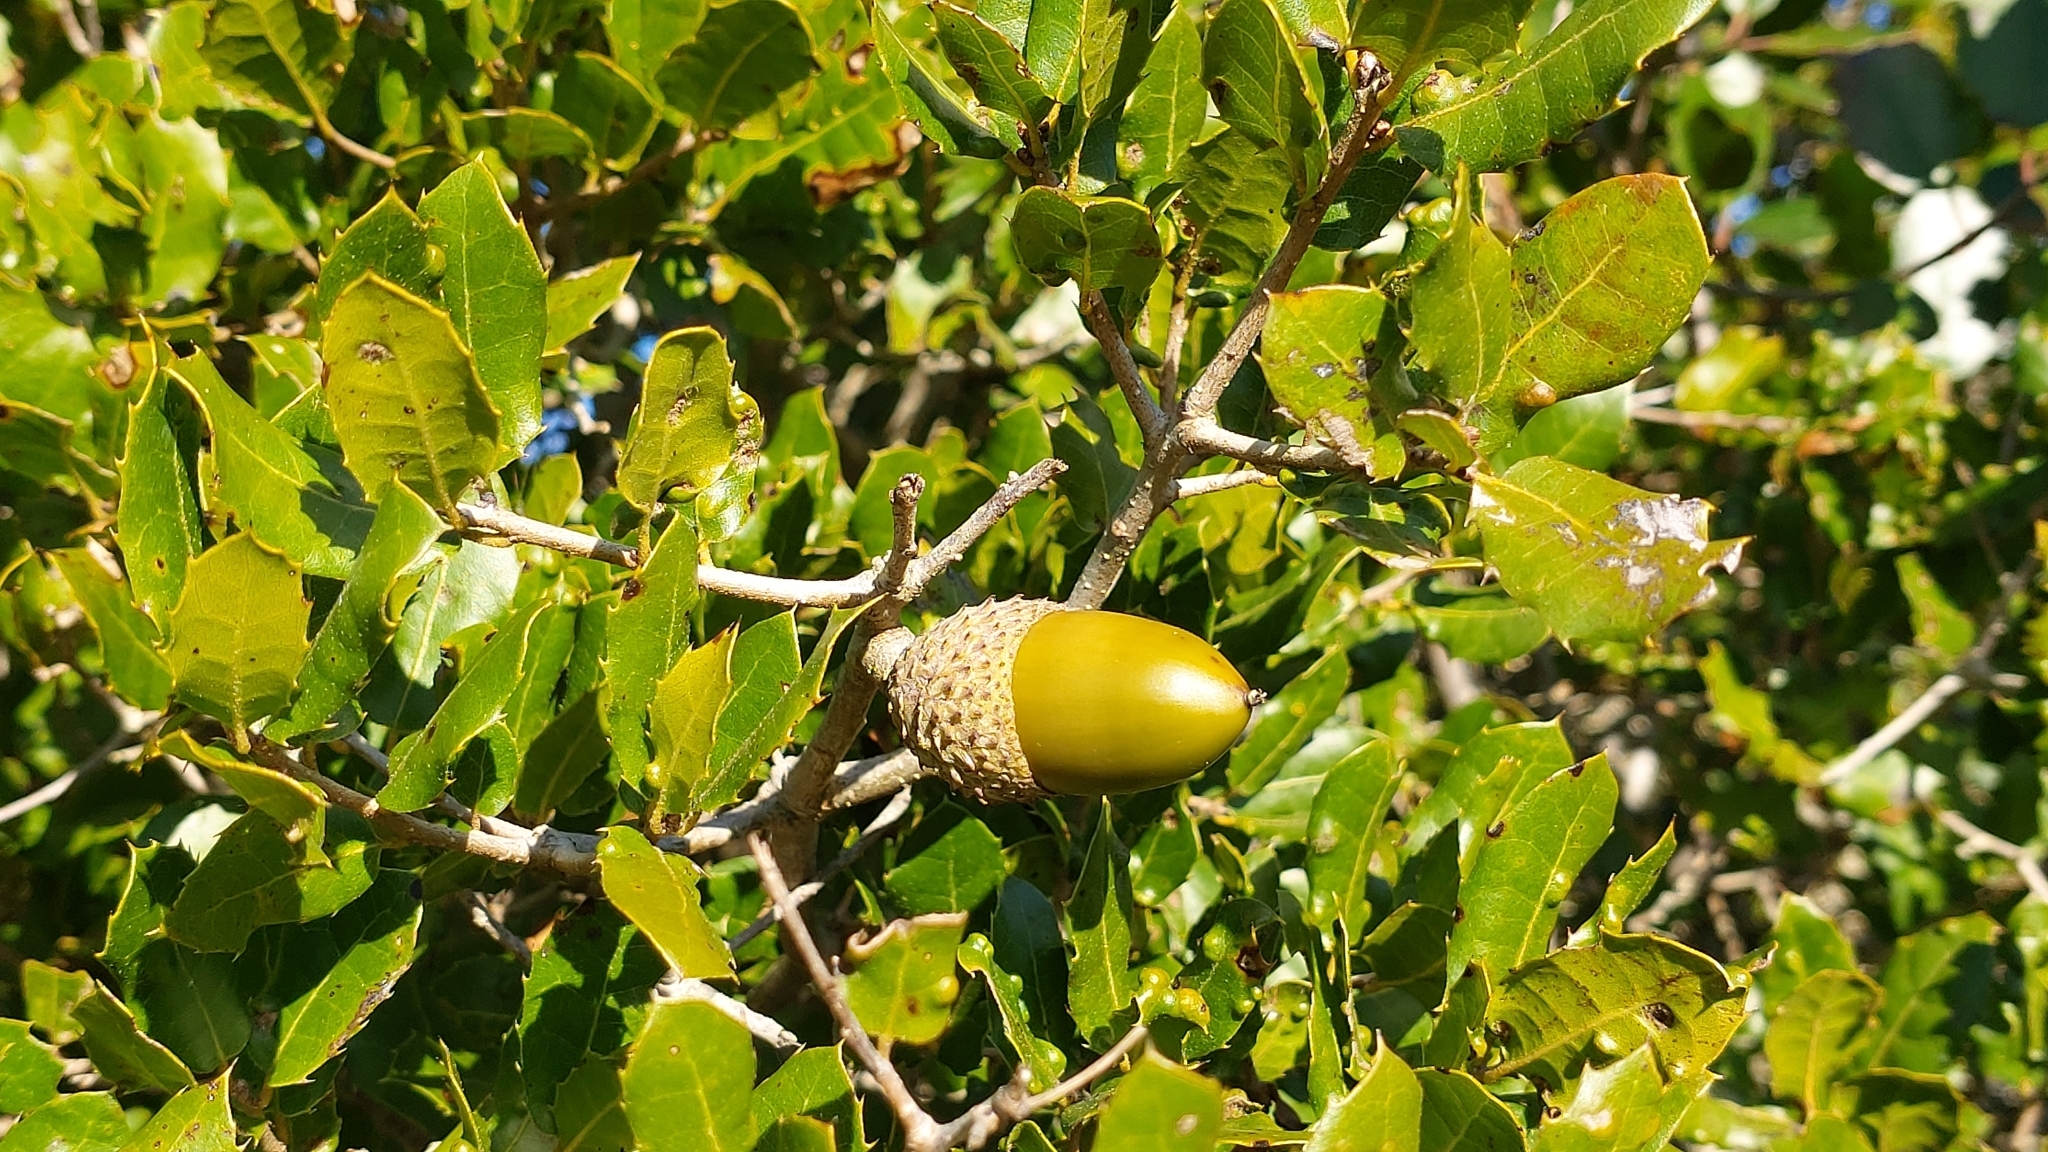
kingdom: Plantae
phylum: Tracheophyta
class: Magnoliopsida
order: Fagales
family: Fagaceae
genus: Quercus
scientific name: Quercus coccifera
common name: Kermes oak
